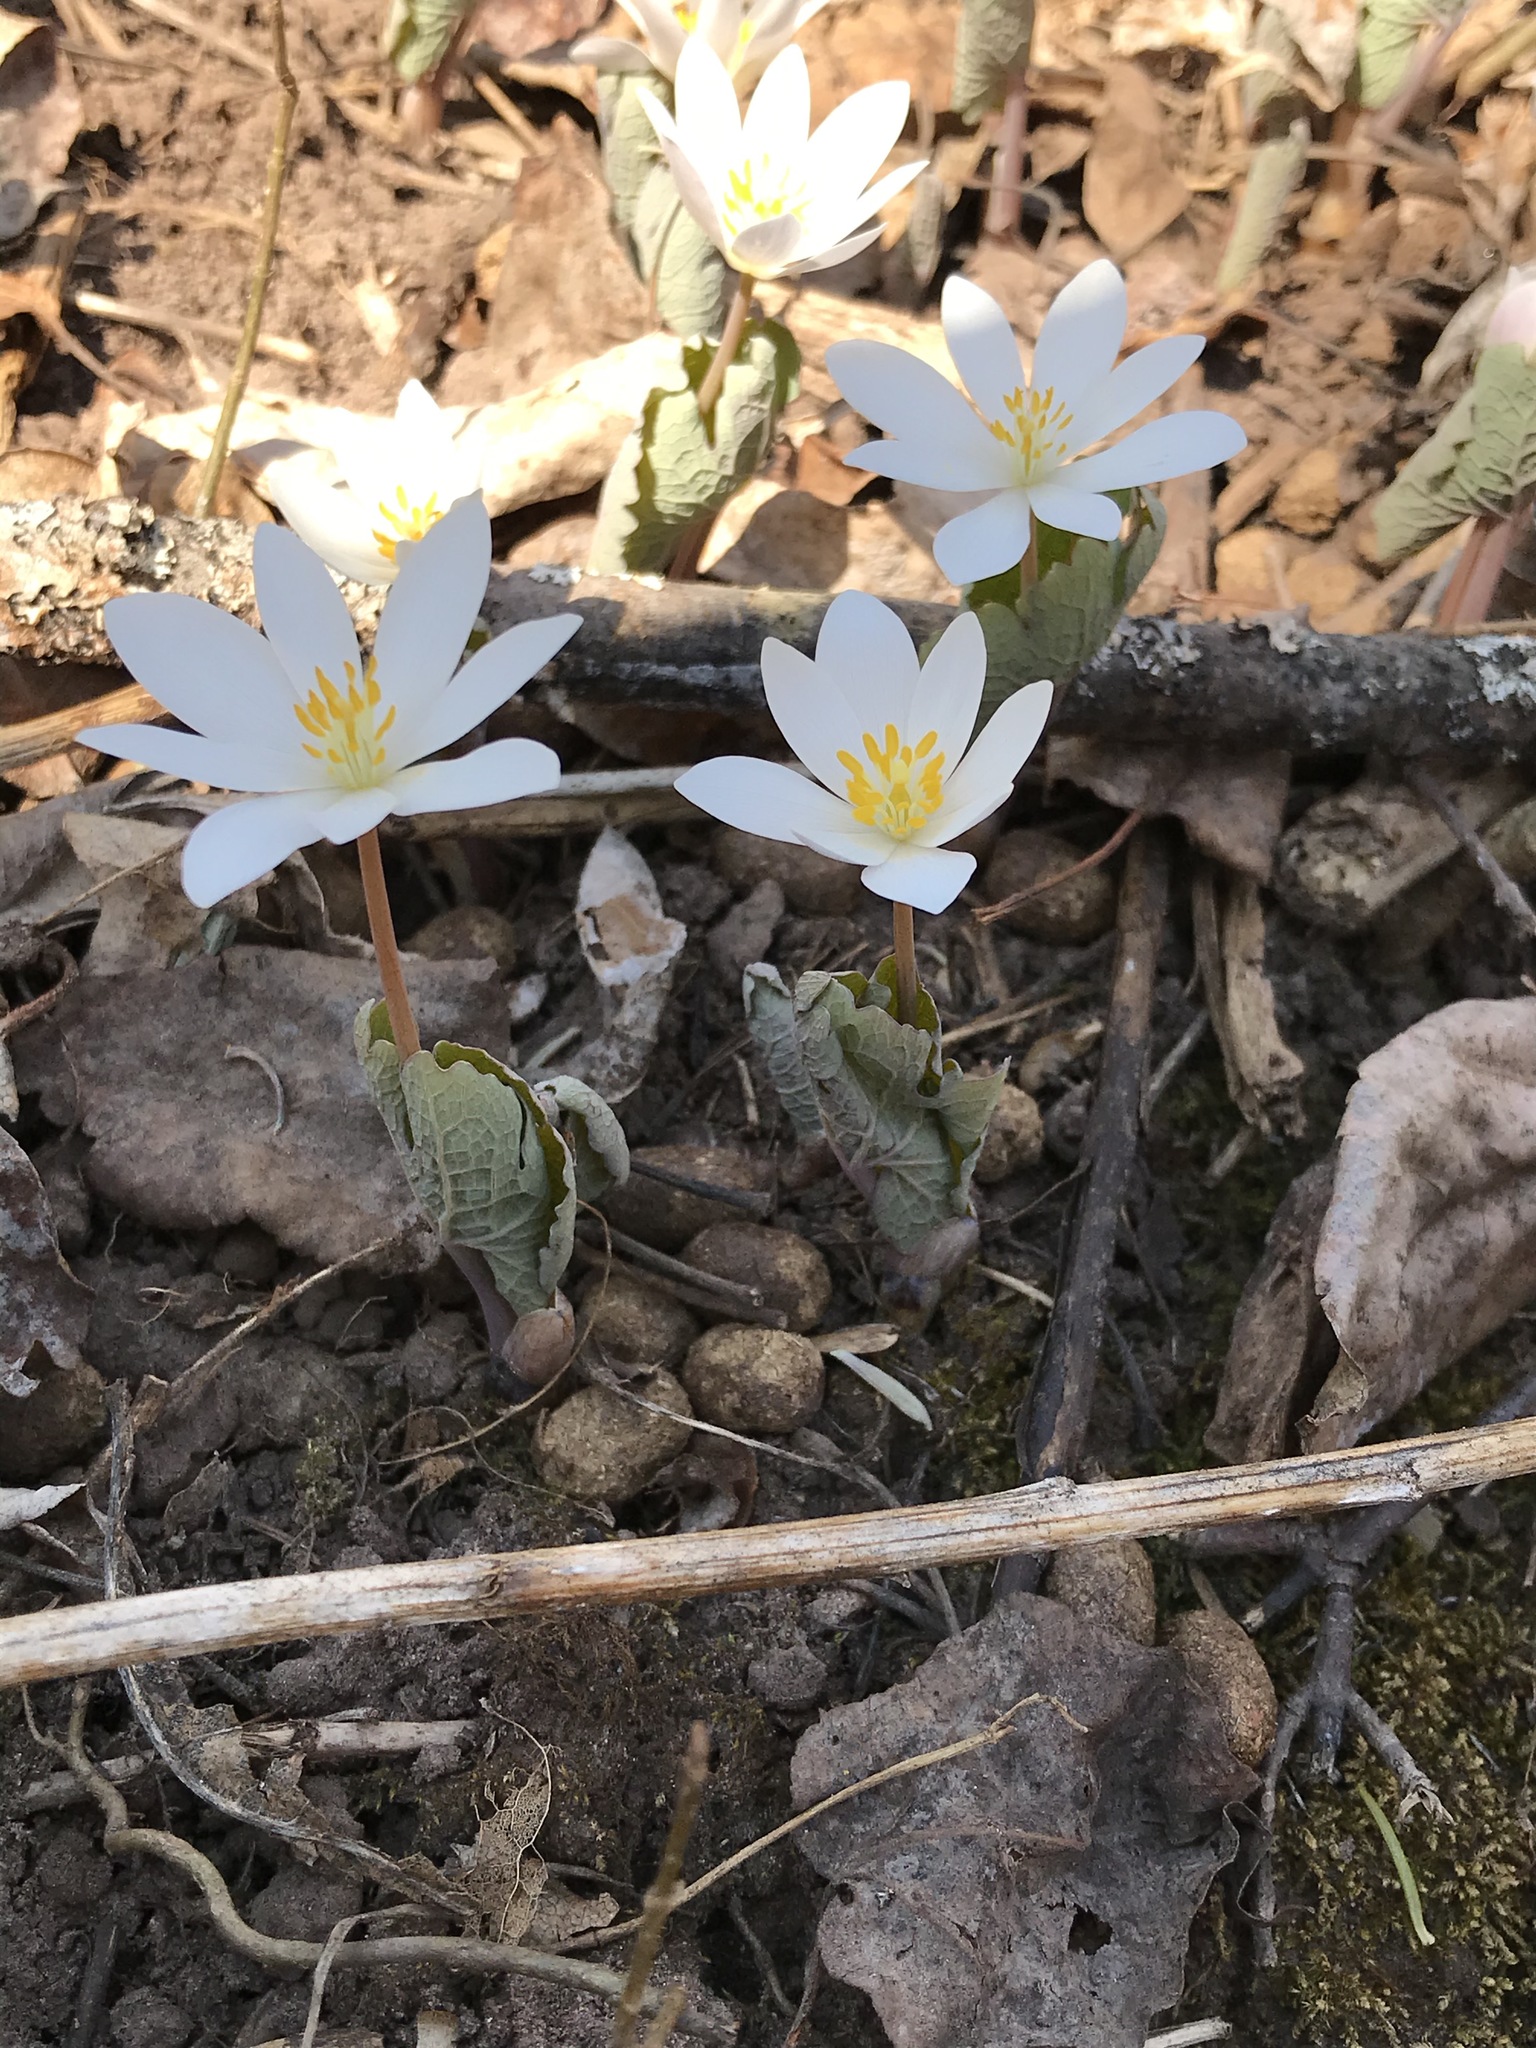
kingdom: Plantae
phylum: Tracheophyta
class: Magnoliopsida
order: Ranunculales
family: Papaveraceae
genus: Sanguinaria
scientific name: Sanguinaria canadensis
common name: Bloodroot
